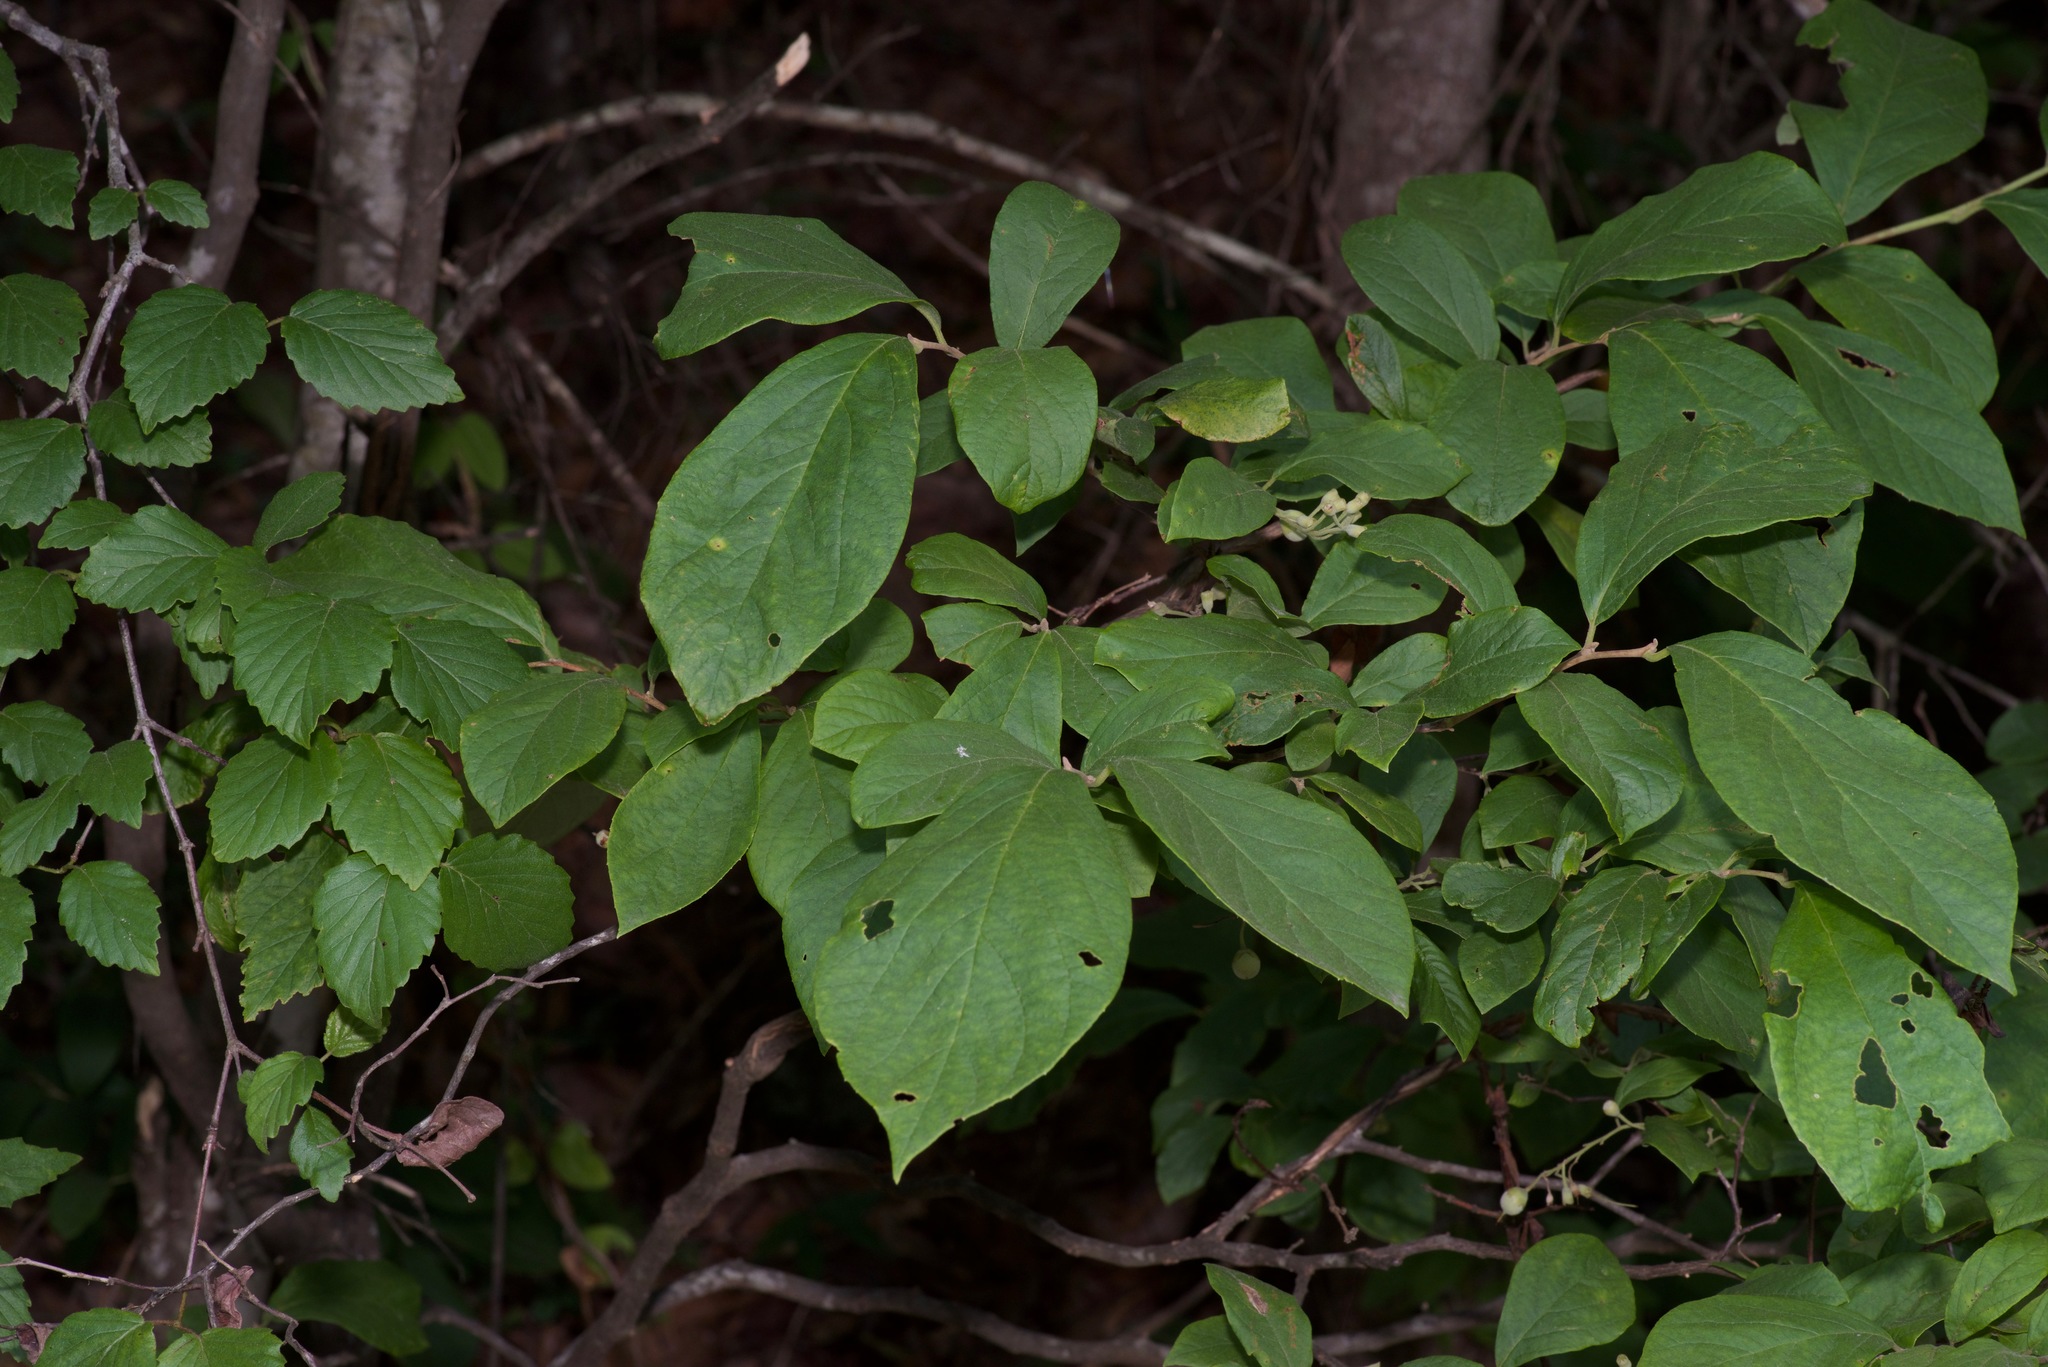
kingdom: Plantae
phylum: Tracheophyta
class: Magnoliopsida
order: Ericales
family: Styracaceae
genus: Styrax
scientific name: Styrax grandifolius
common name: Big-leaf snowbell
